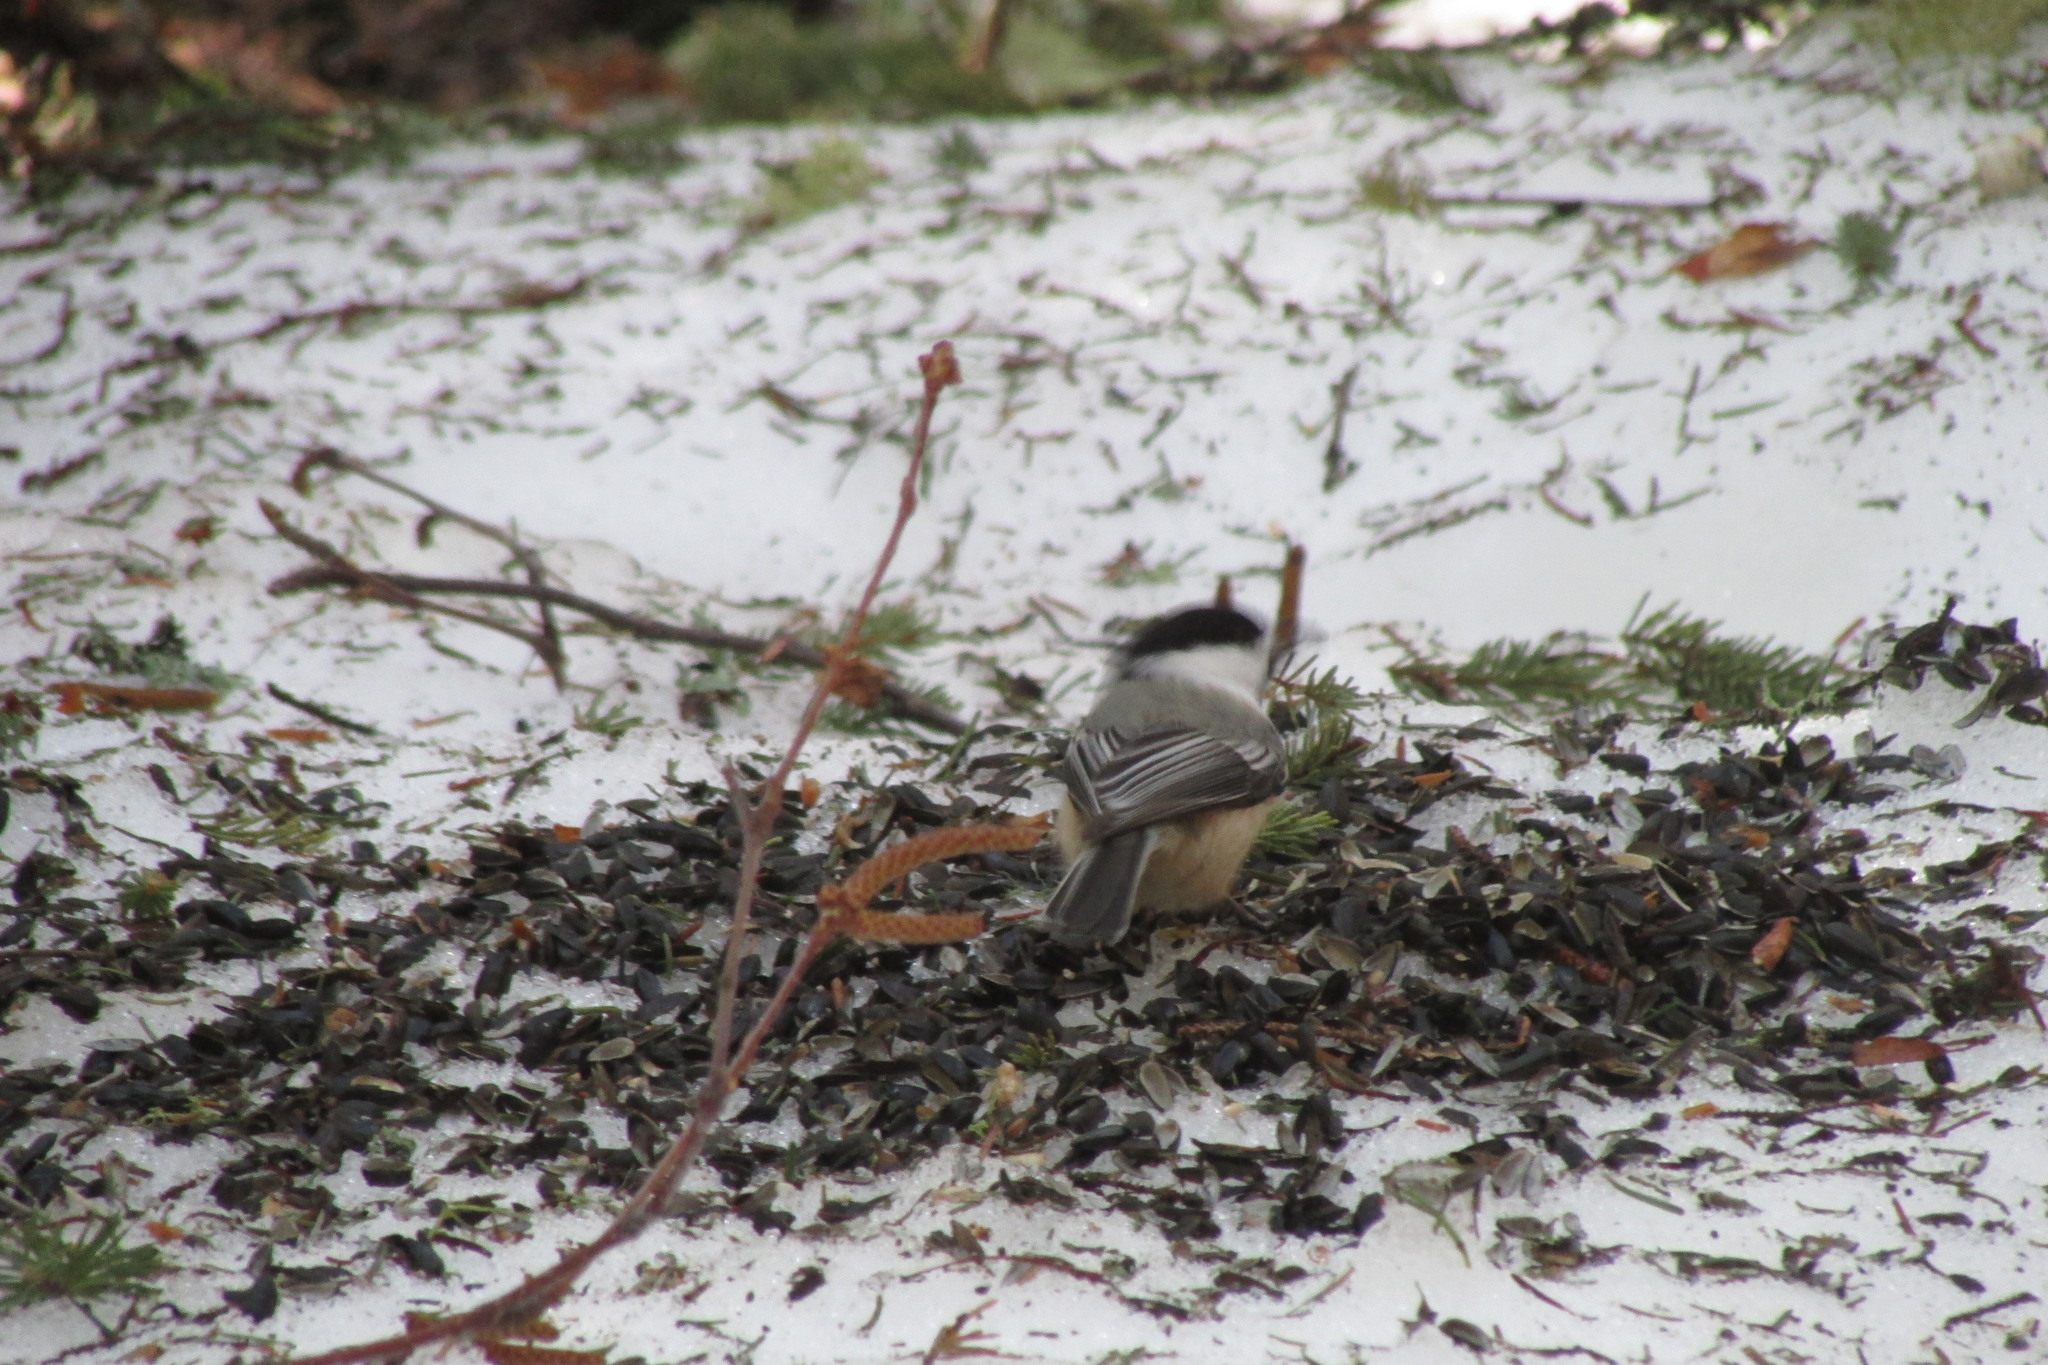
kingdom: Animalia
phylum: Chordata
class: Aves
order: Passeriformes
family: Paridae
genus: Poecile
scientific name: Poecile atricapillus
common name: Black-capped chickadee
